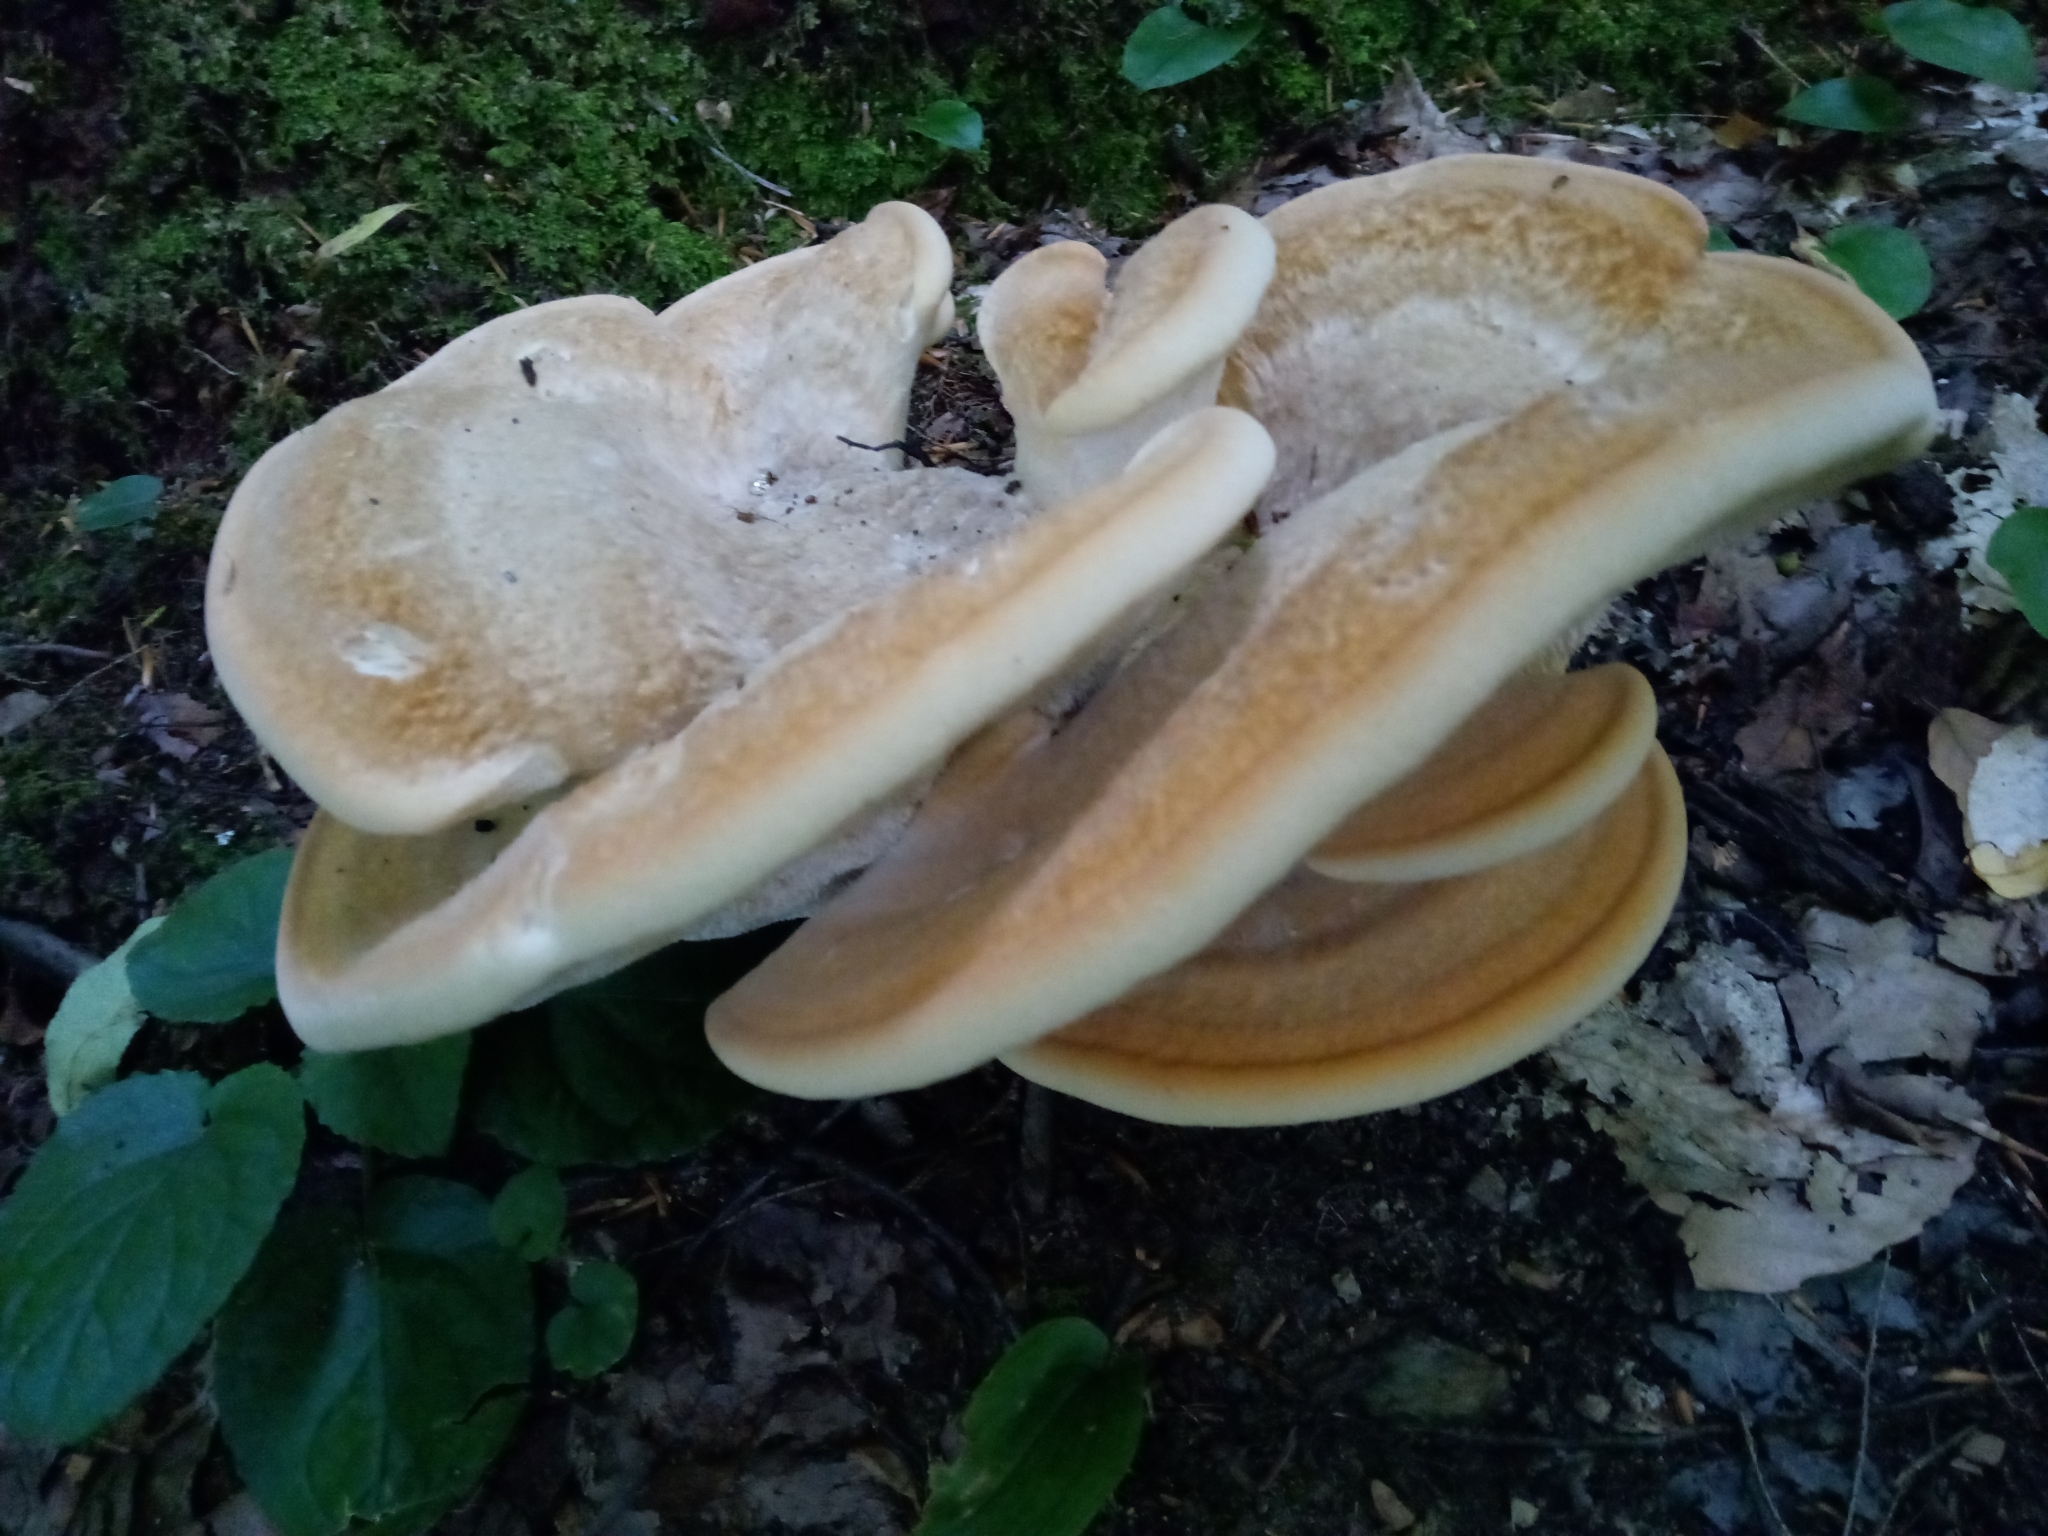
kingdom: Fungi
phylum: Basidiomycota
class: Agaricomycetes
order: Russulales
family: Bondarzewiaceae
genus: Bondarzewia
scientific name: Bondarzewia berkeleyi
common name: Berkeley's polypore
